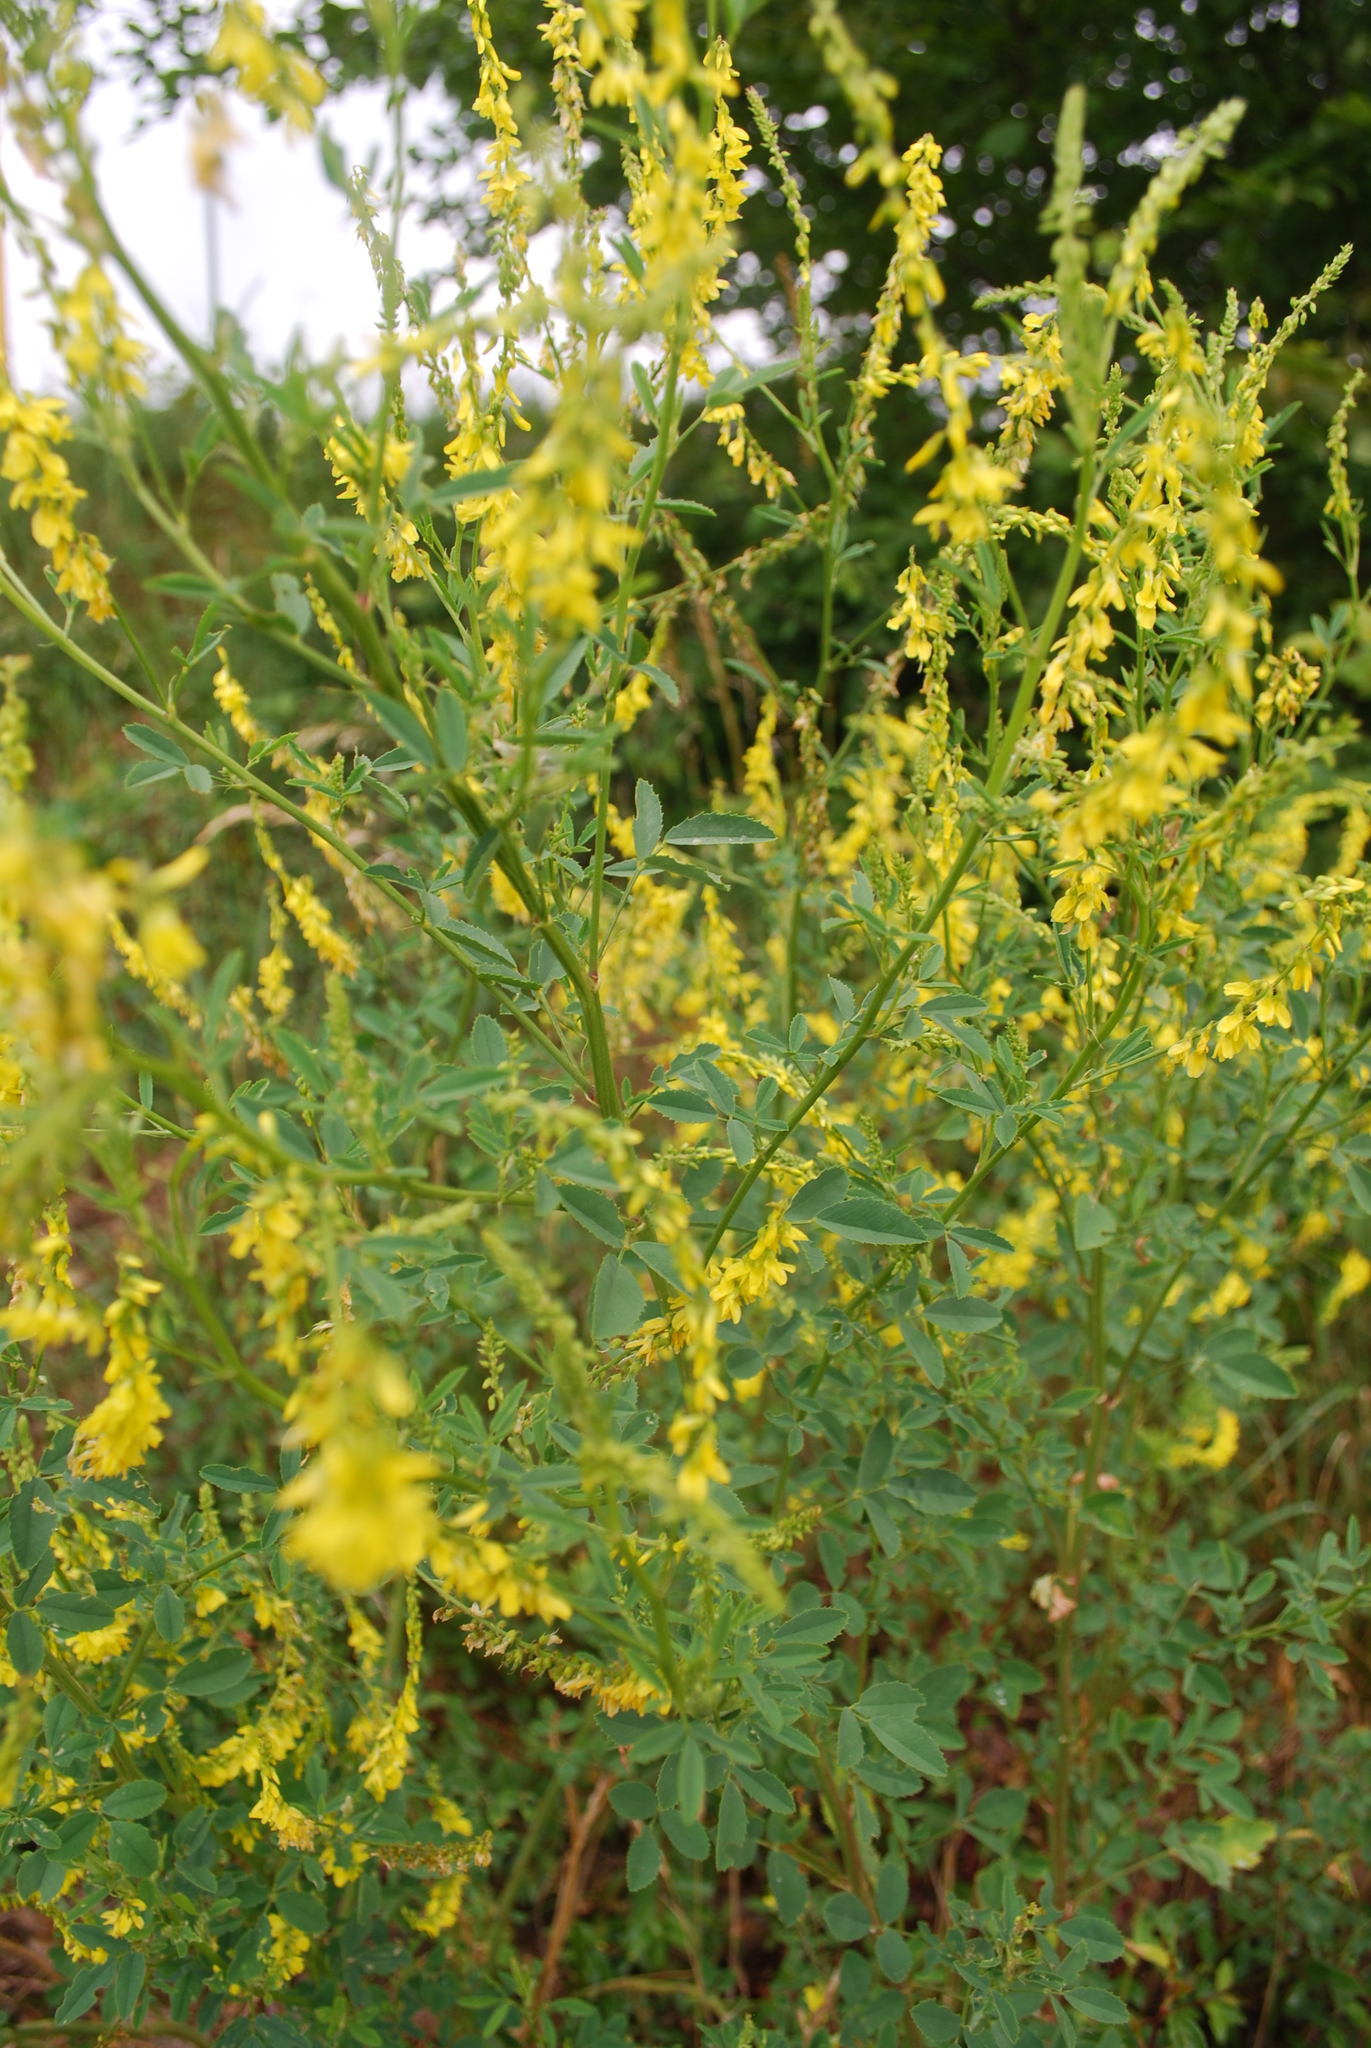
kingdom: Plantae
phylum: Tracheophyta
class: Magnoliopsida
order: Fabales
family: Fabaceae
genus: Melilotus
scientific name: Melilotus officinalis
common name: Sweetclover
